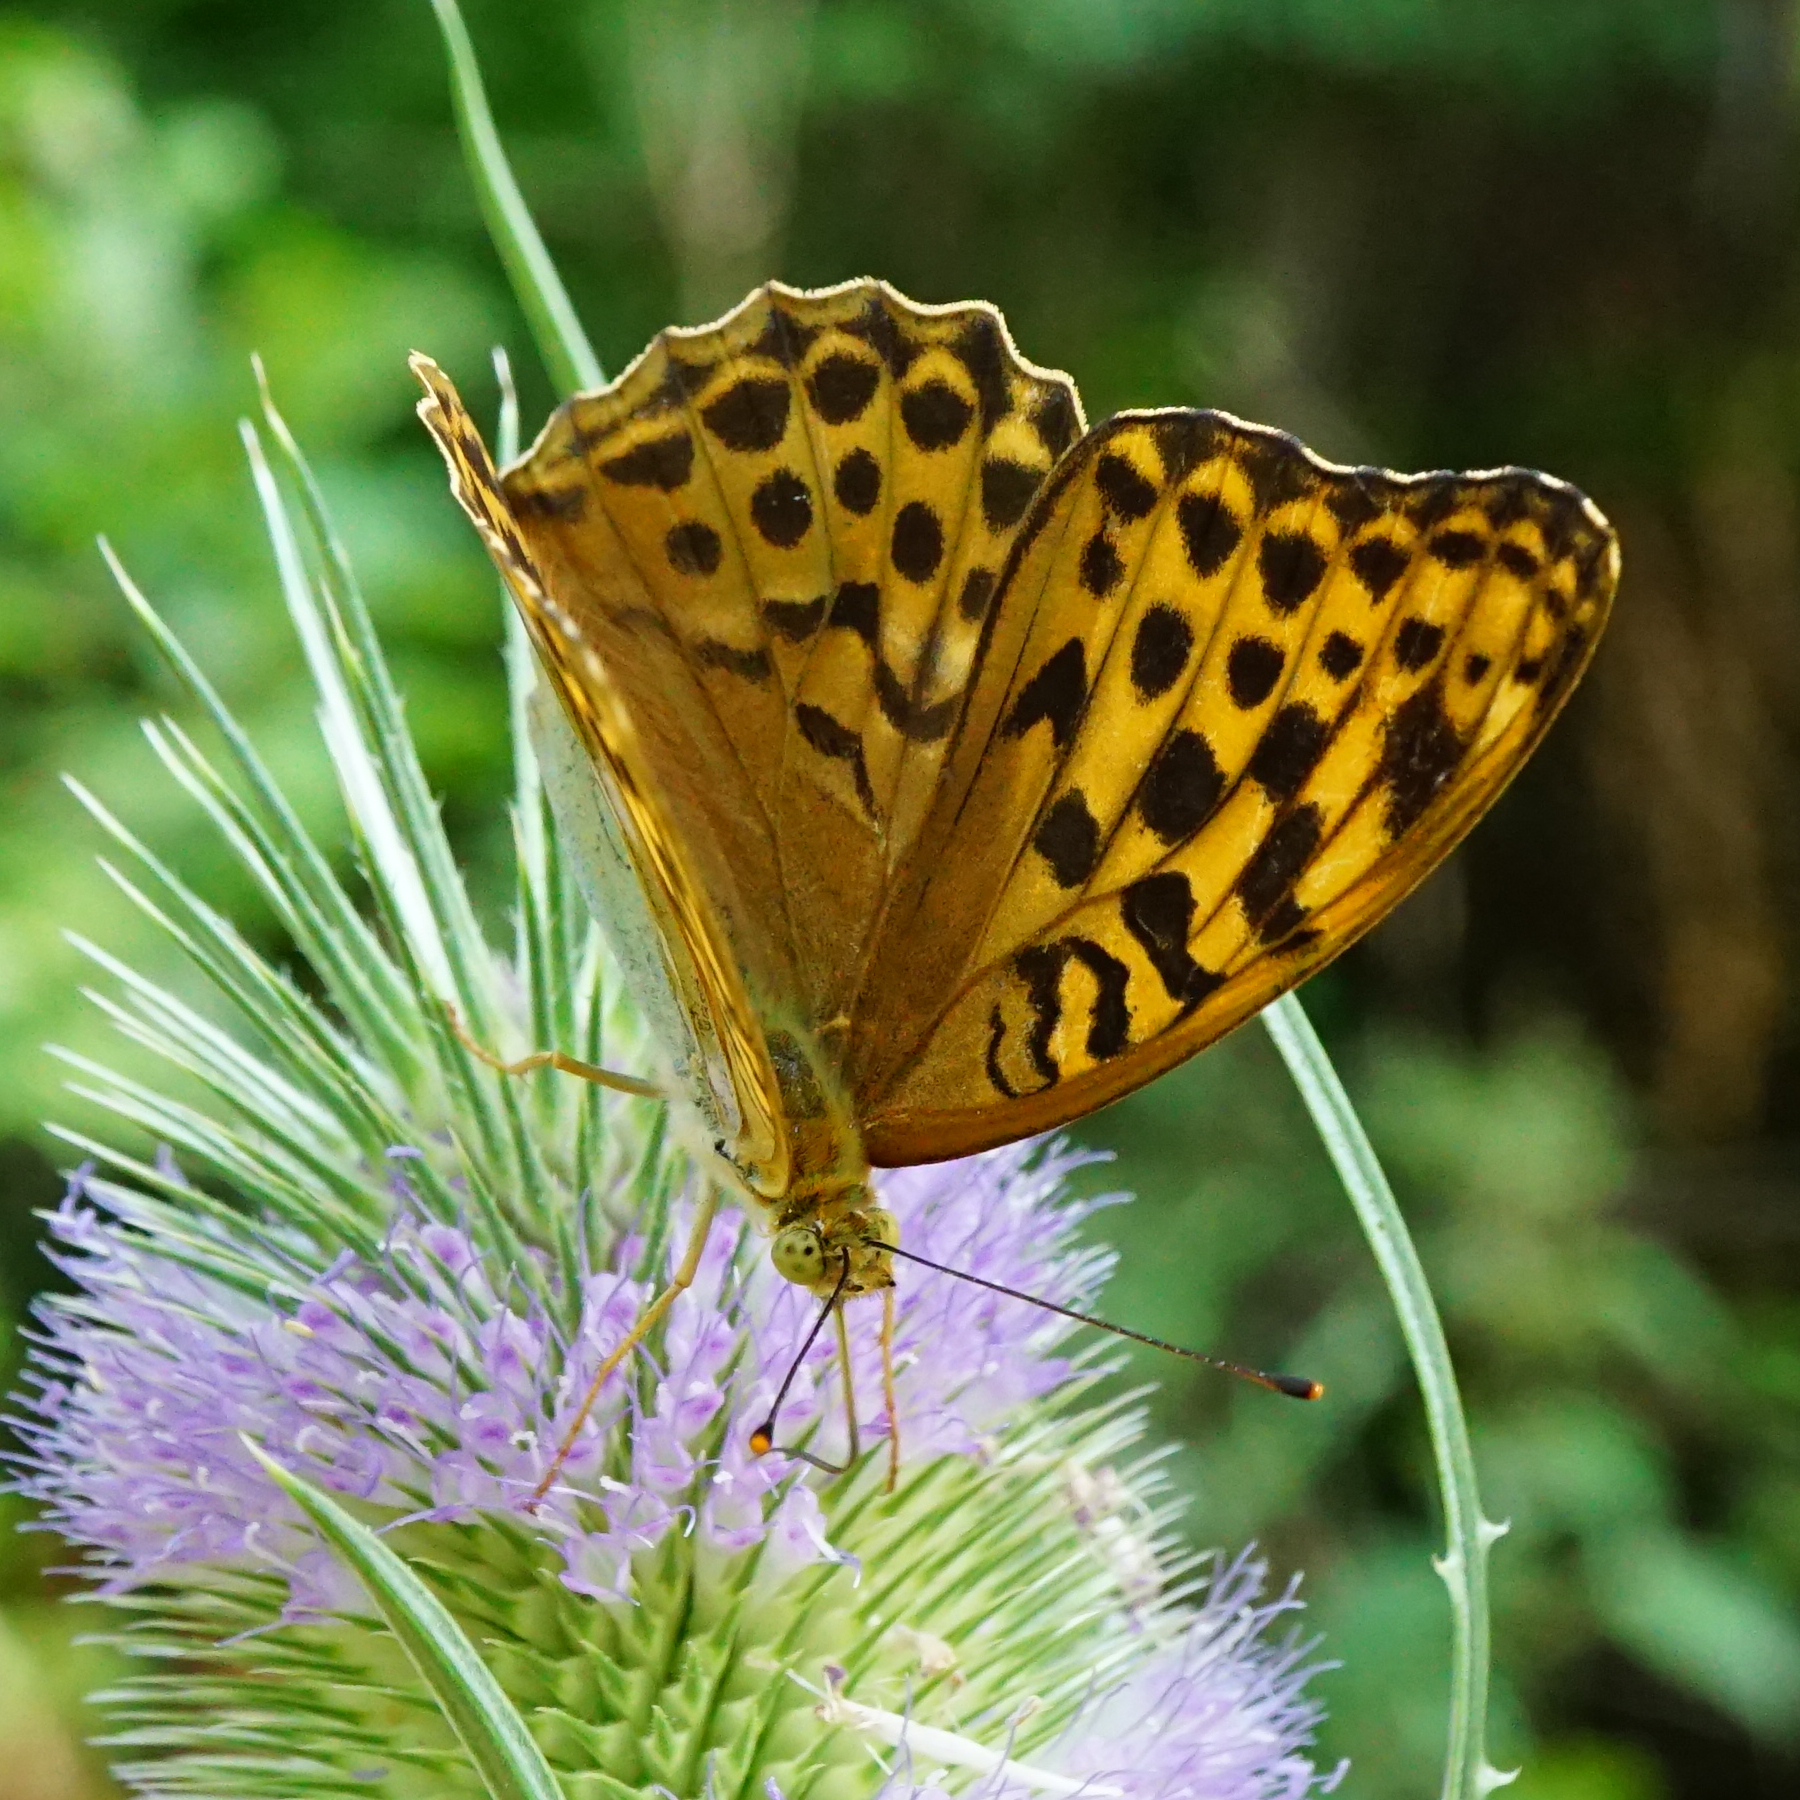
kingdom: Animalia
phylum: Arthropoda
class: Insecta
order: Lepidoptera
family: Nymphalidae
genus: Argynnis
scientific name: Argynnis paphia
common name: Silver-washed fritillary
